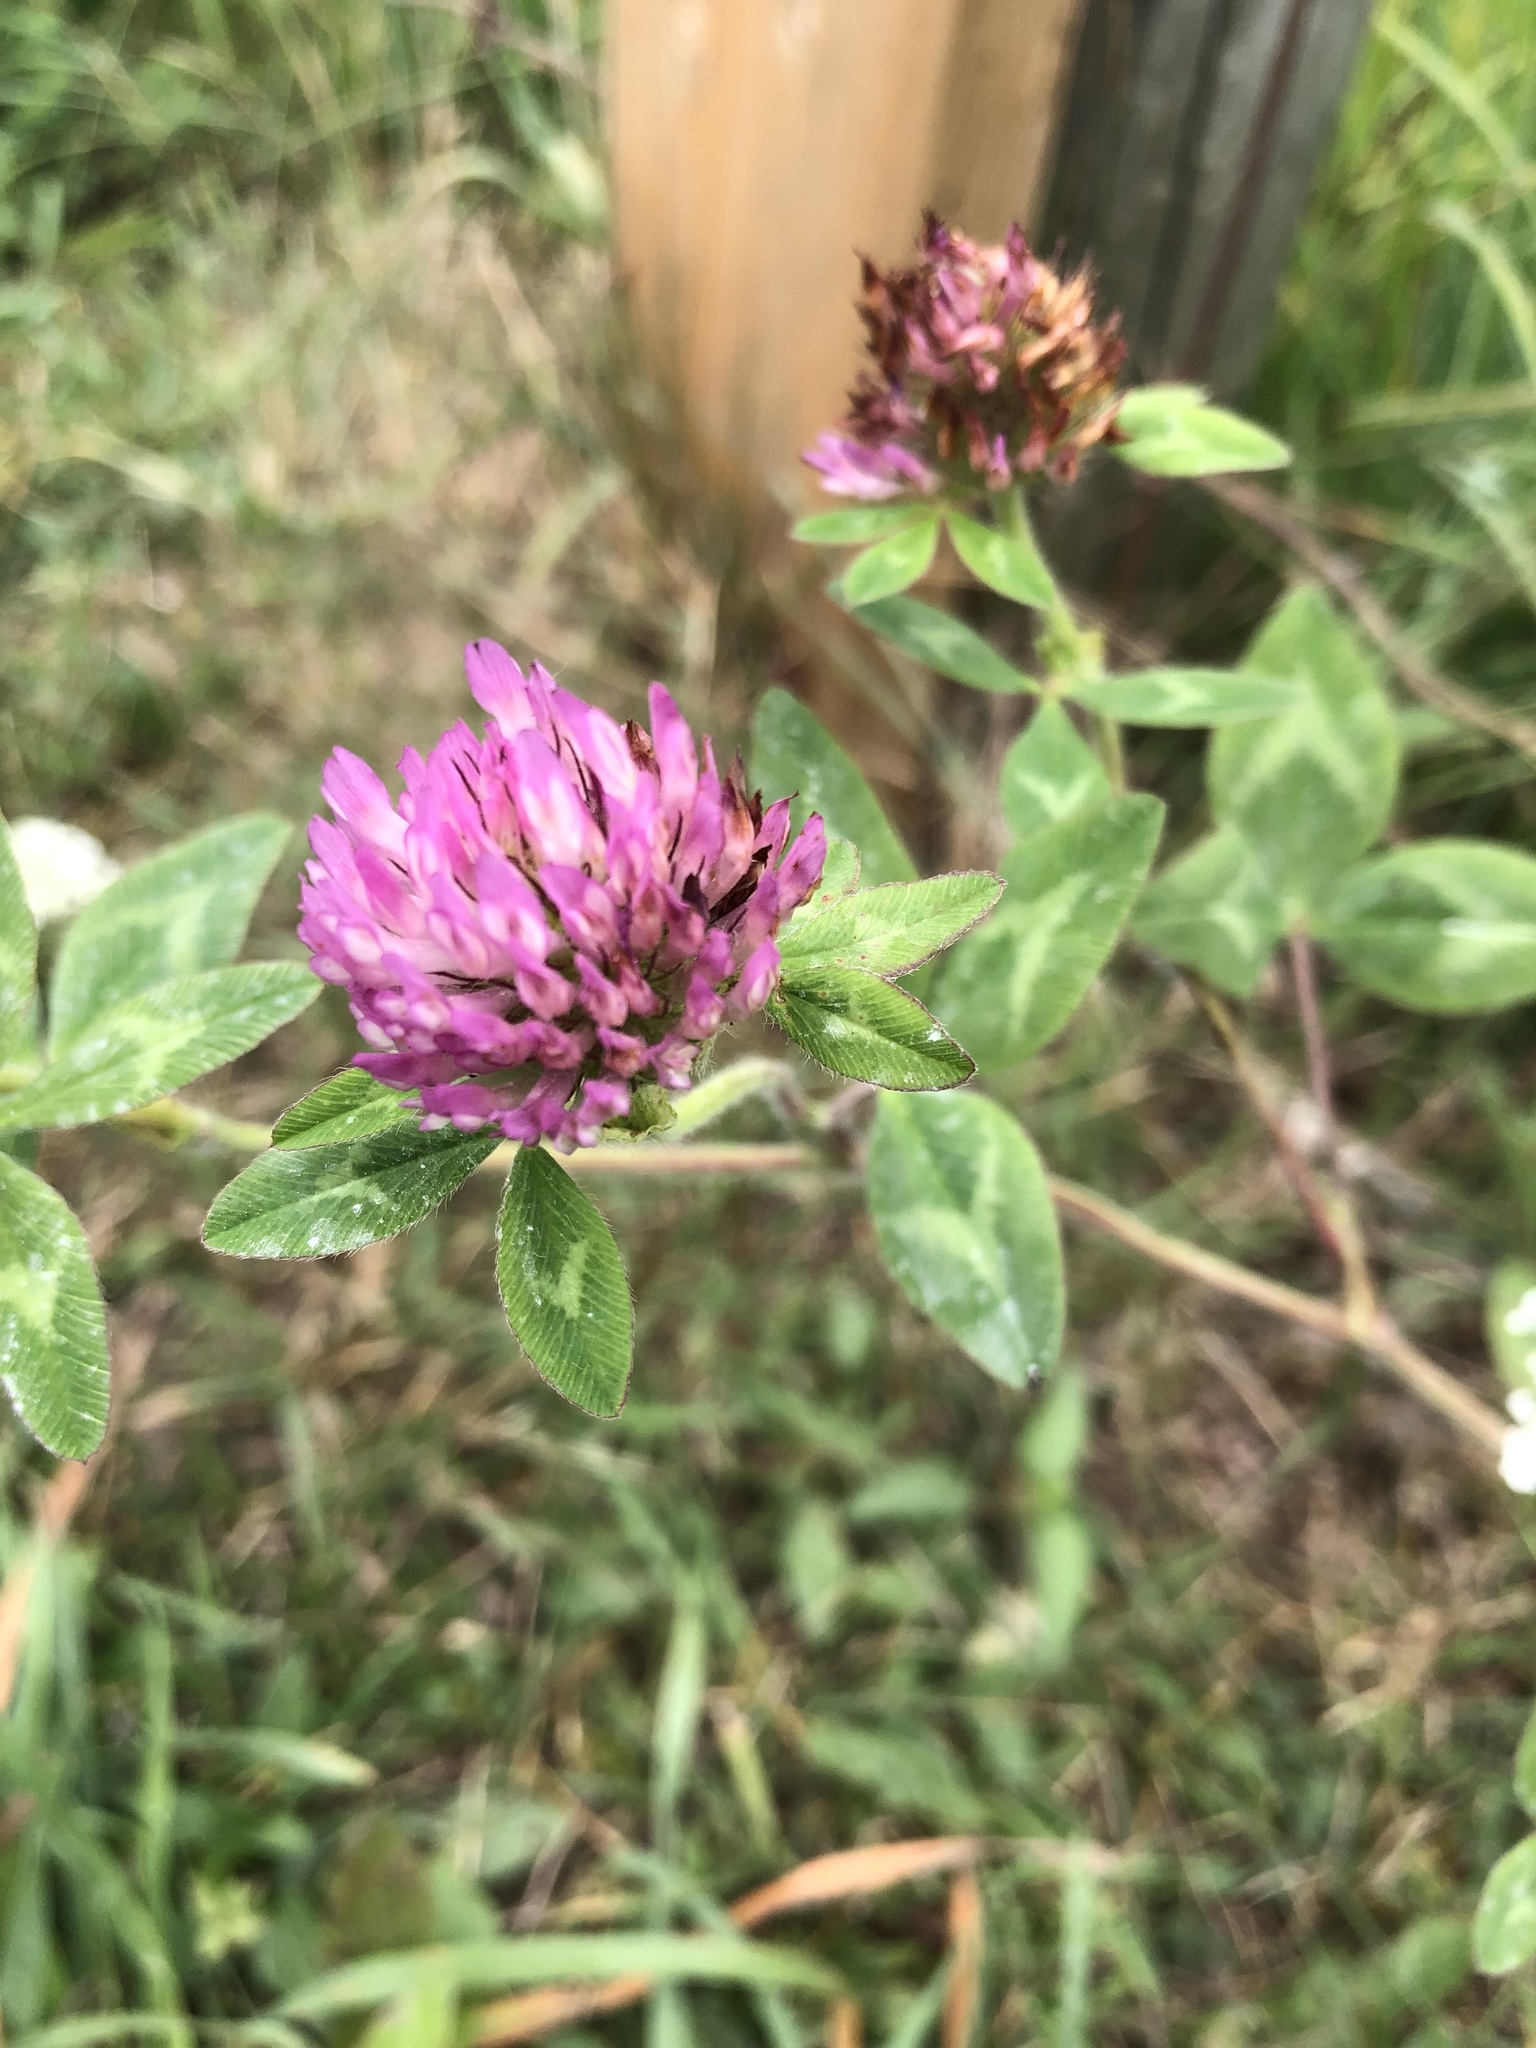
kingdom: Plantae
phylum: Tracheophyta
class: Magnoliopsida
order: Fabales
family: Fabaceae
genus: Trifolium
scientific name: Trifolium pratense
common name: Red clover
